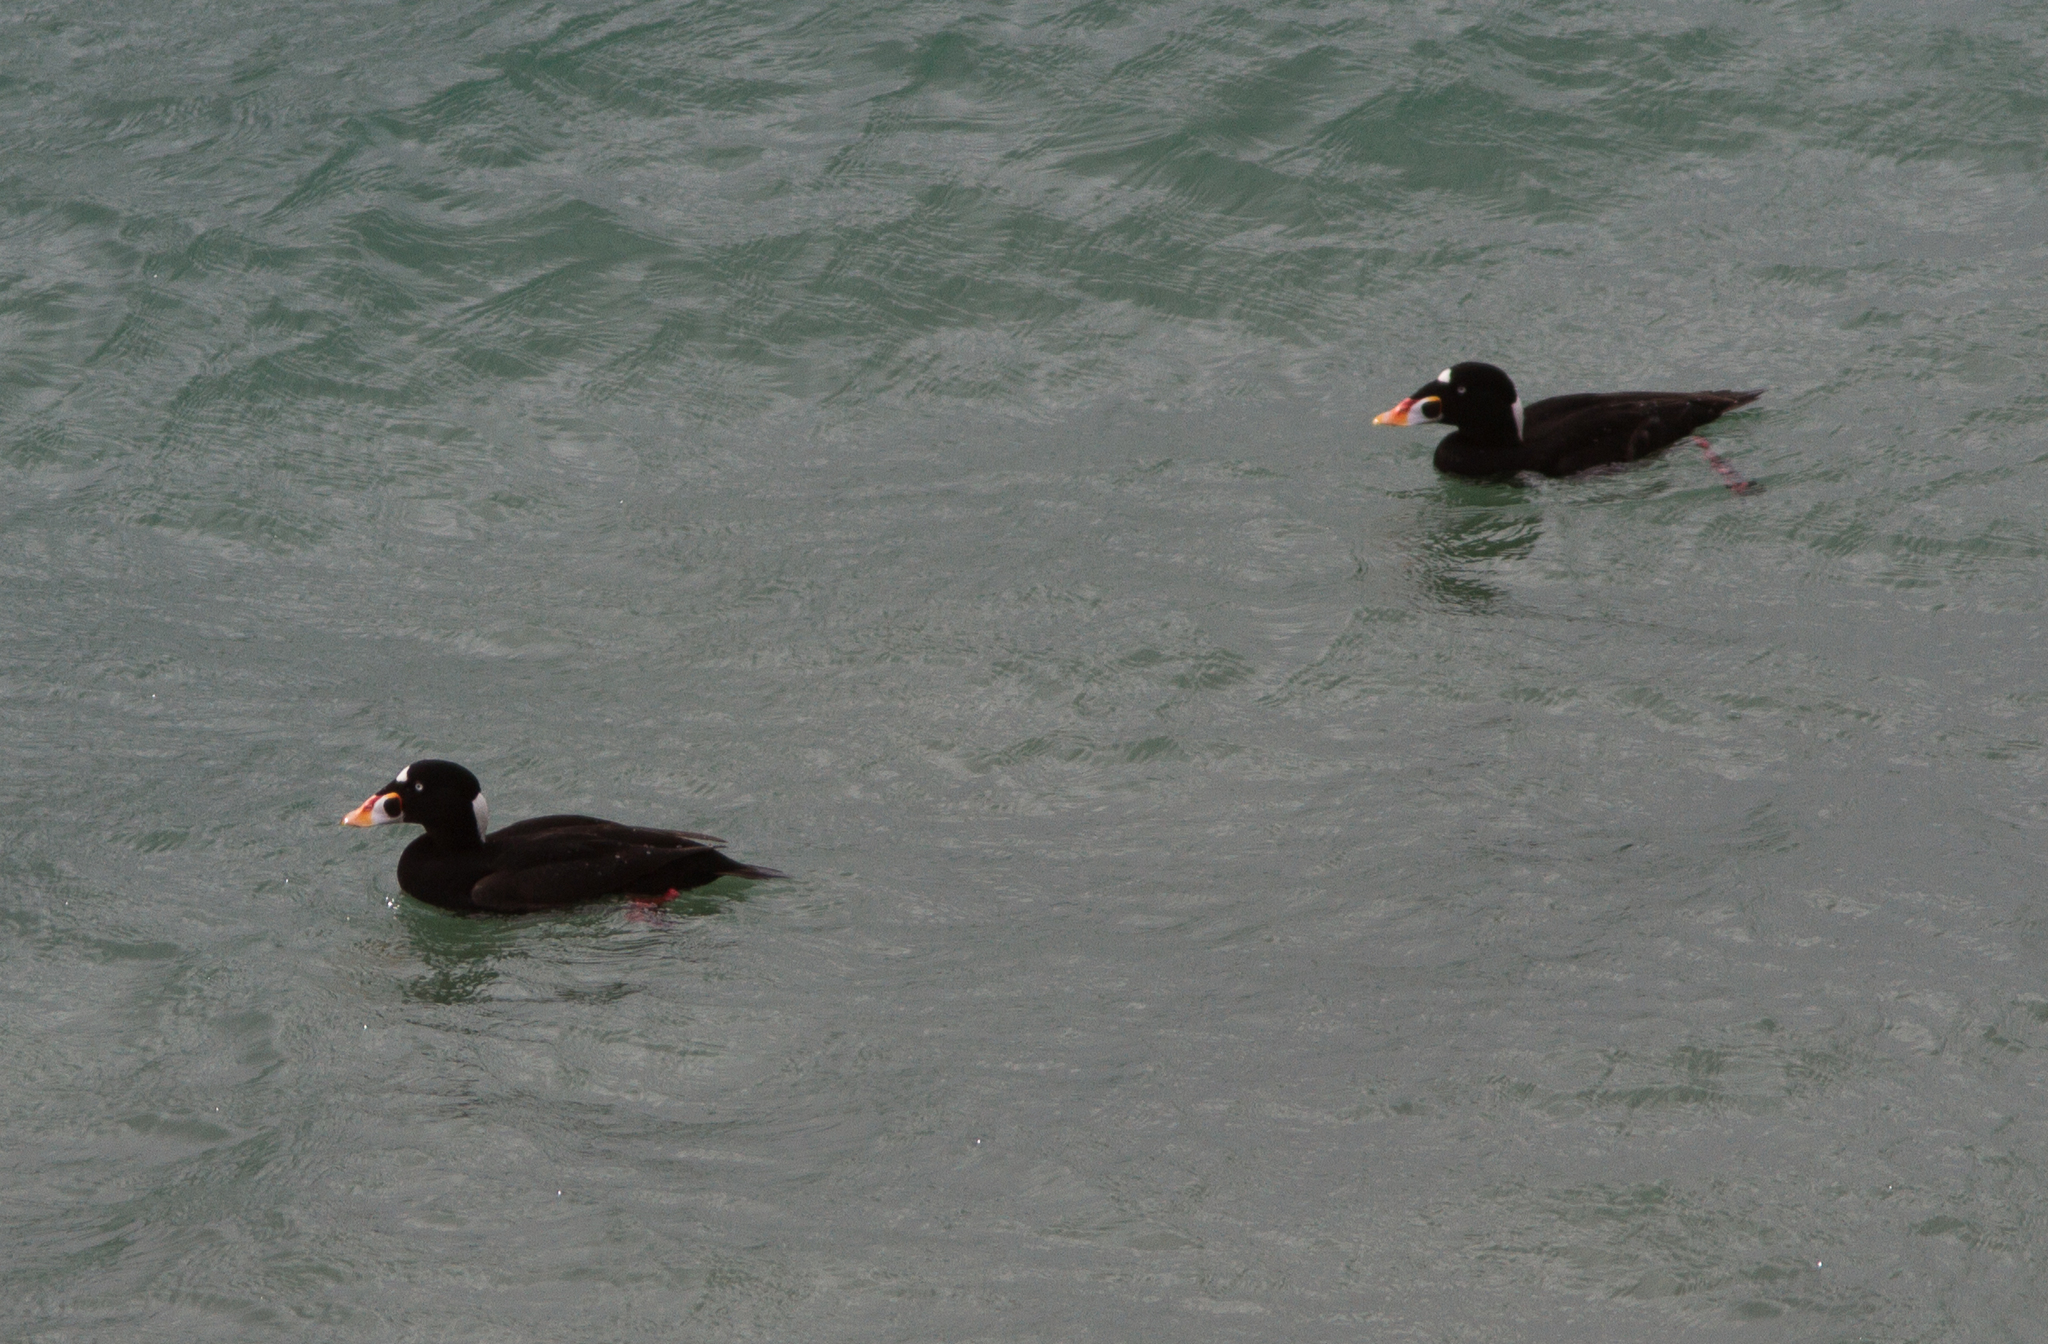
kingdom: Animalia
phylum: Chordata
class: Aves
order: Anseriformes
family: Anatidae
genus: Melanitta
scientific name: Melanitta perspicillata
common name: Surf scoter
